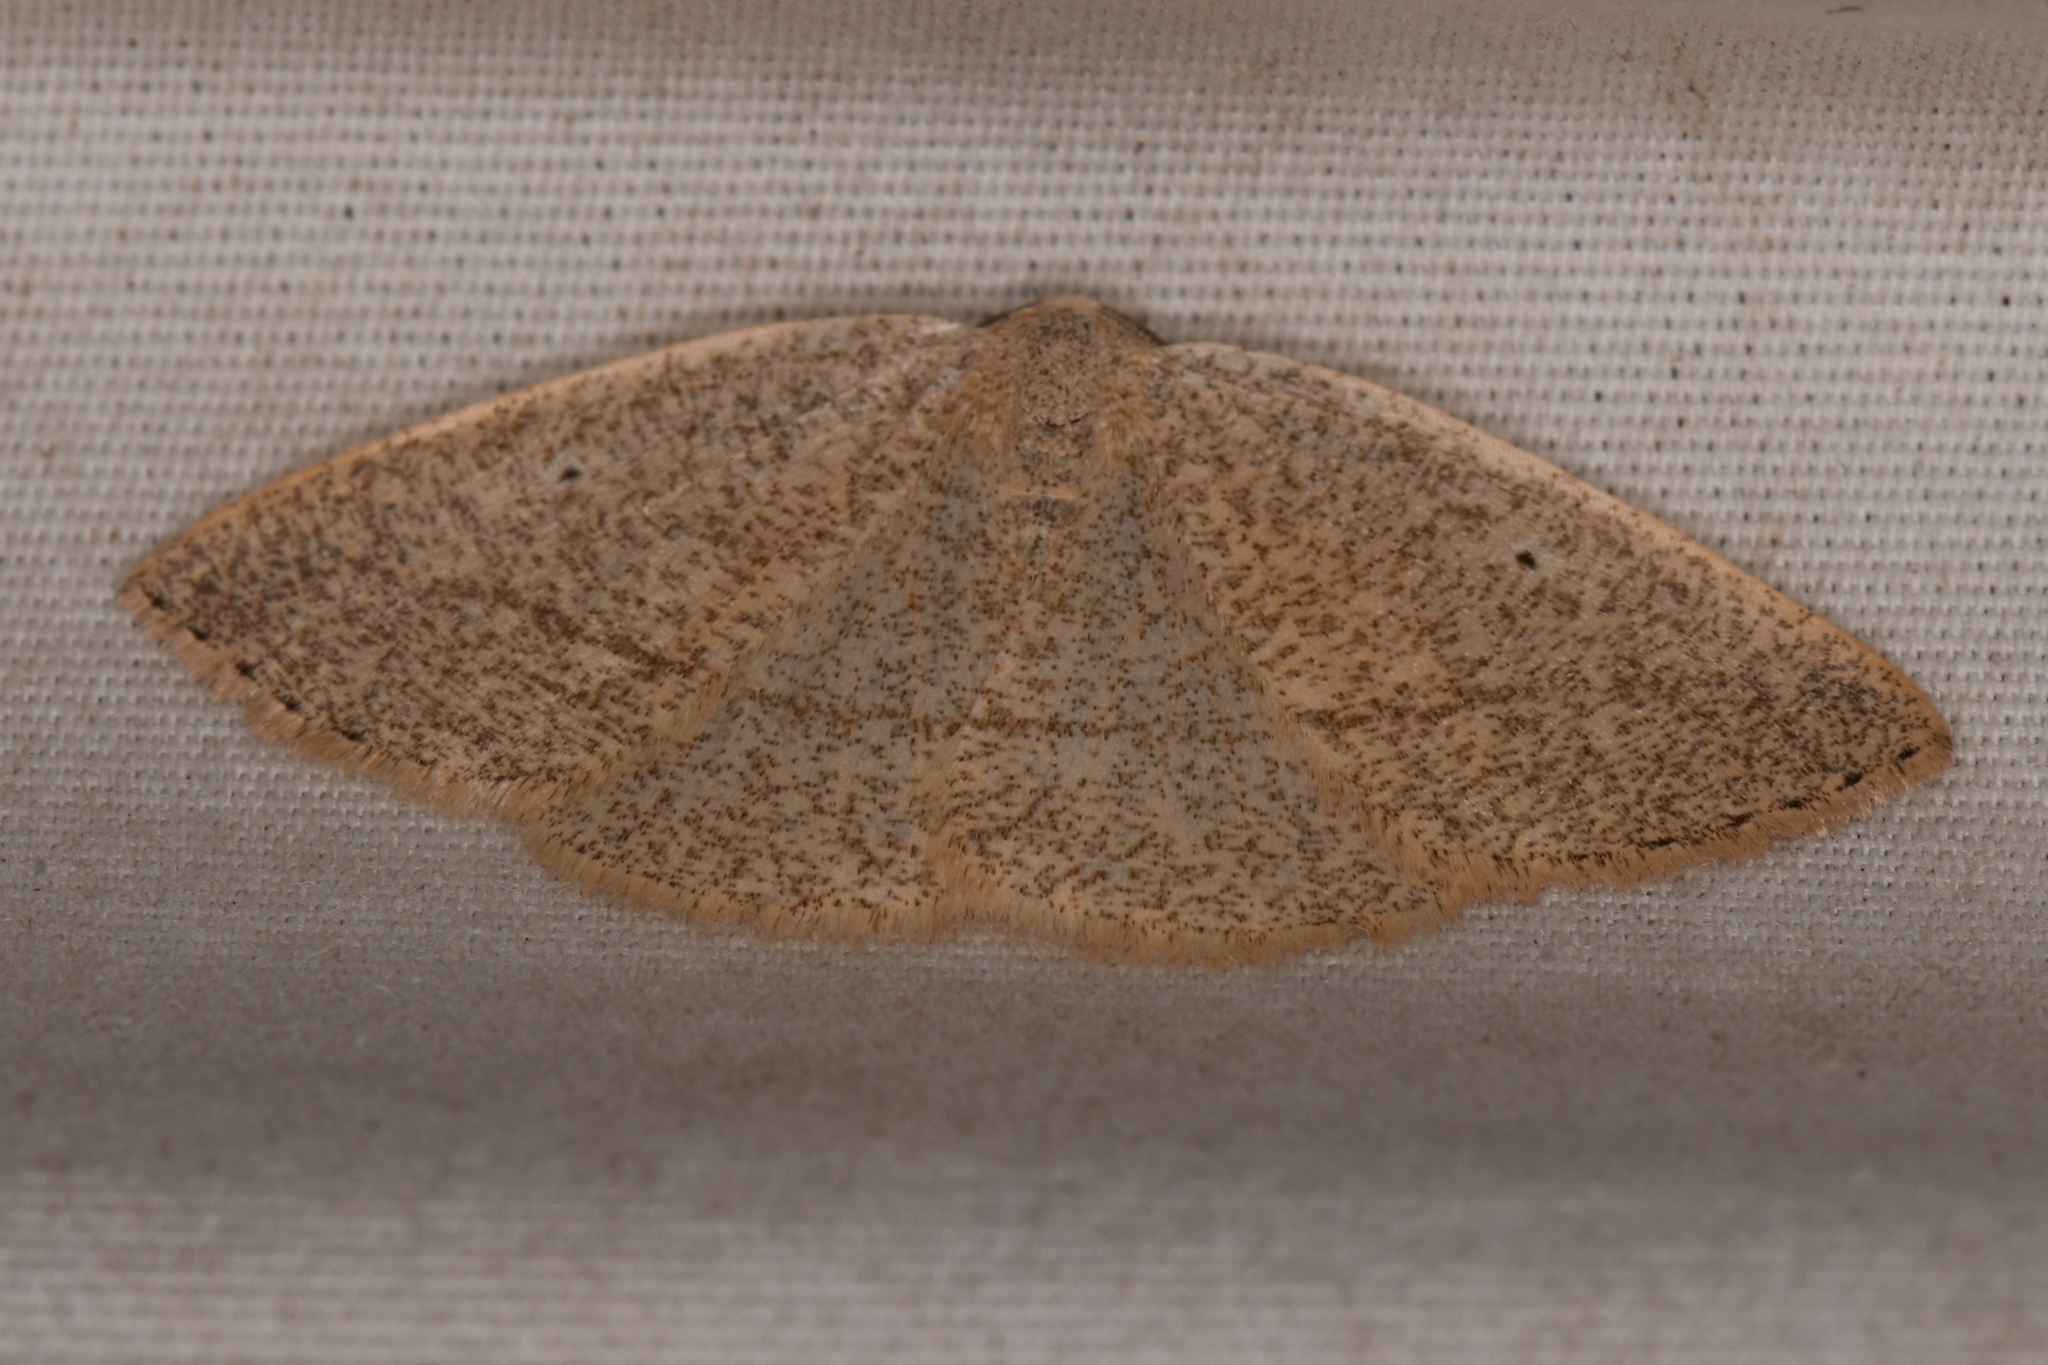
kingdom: Animalia
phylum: Arthropoda
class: Insecta
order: Lepidoptera
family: Geometridae
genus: Eudrepanulatrix
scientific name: Eudrepanulatrix rectifascia
